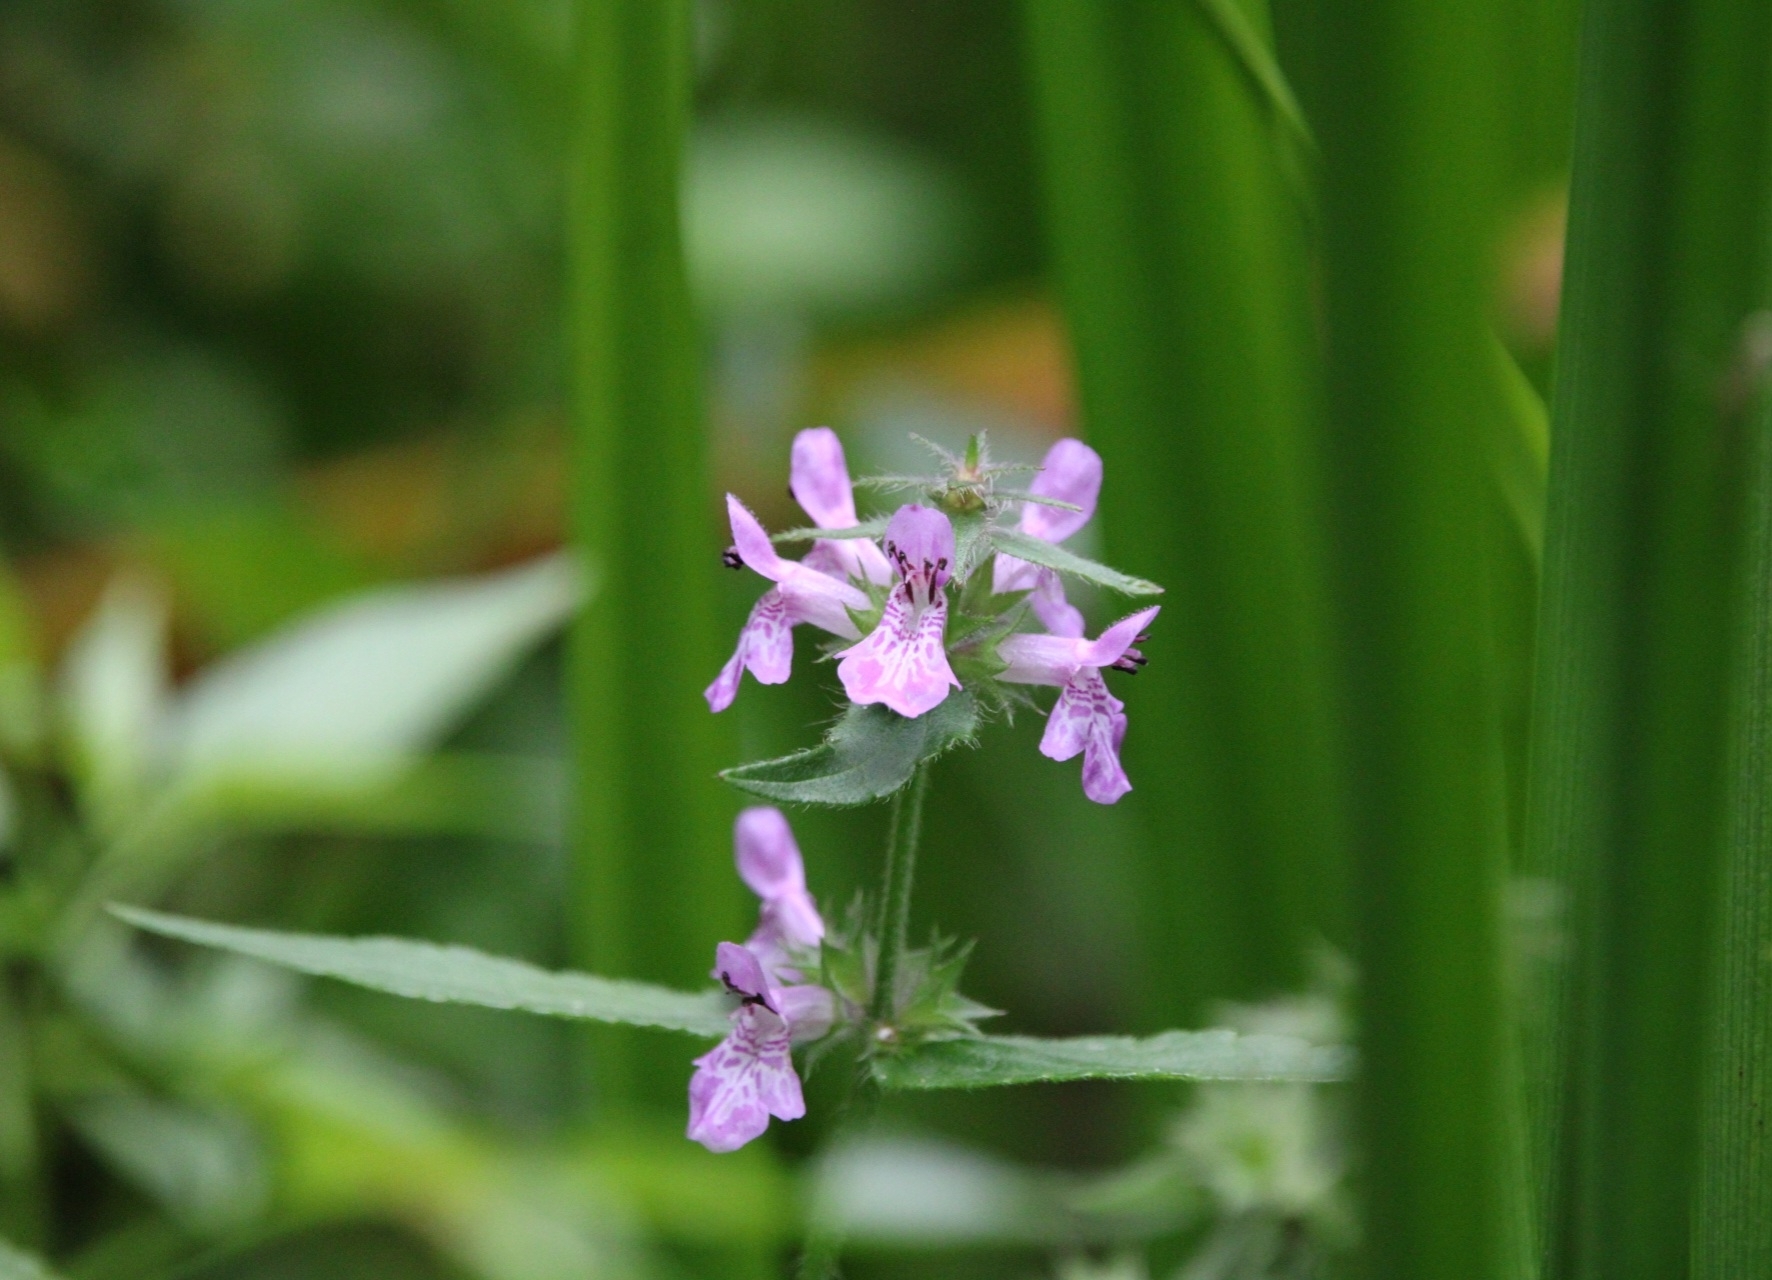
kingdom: Plantae
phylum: Tracheophyta
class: Magnoliopsida
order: Lamiales
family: Lamiaceae
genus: Stachys
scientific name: Stachys palustris
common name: Marsh woundwort
